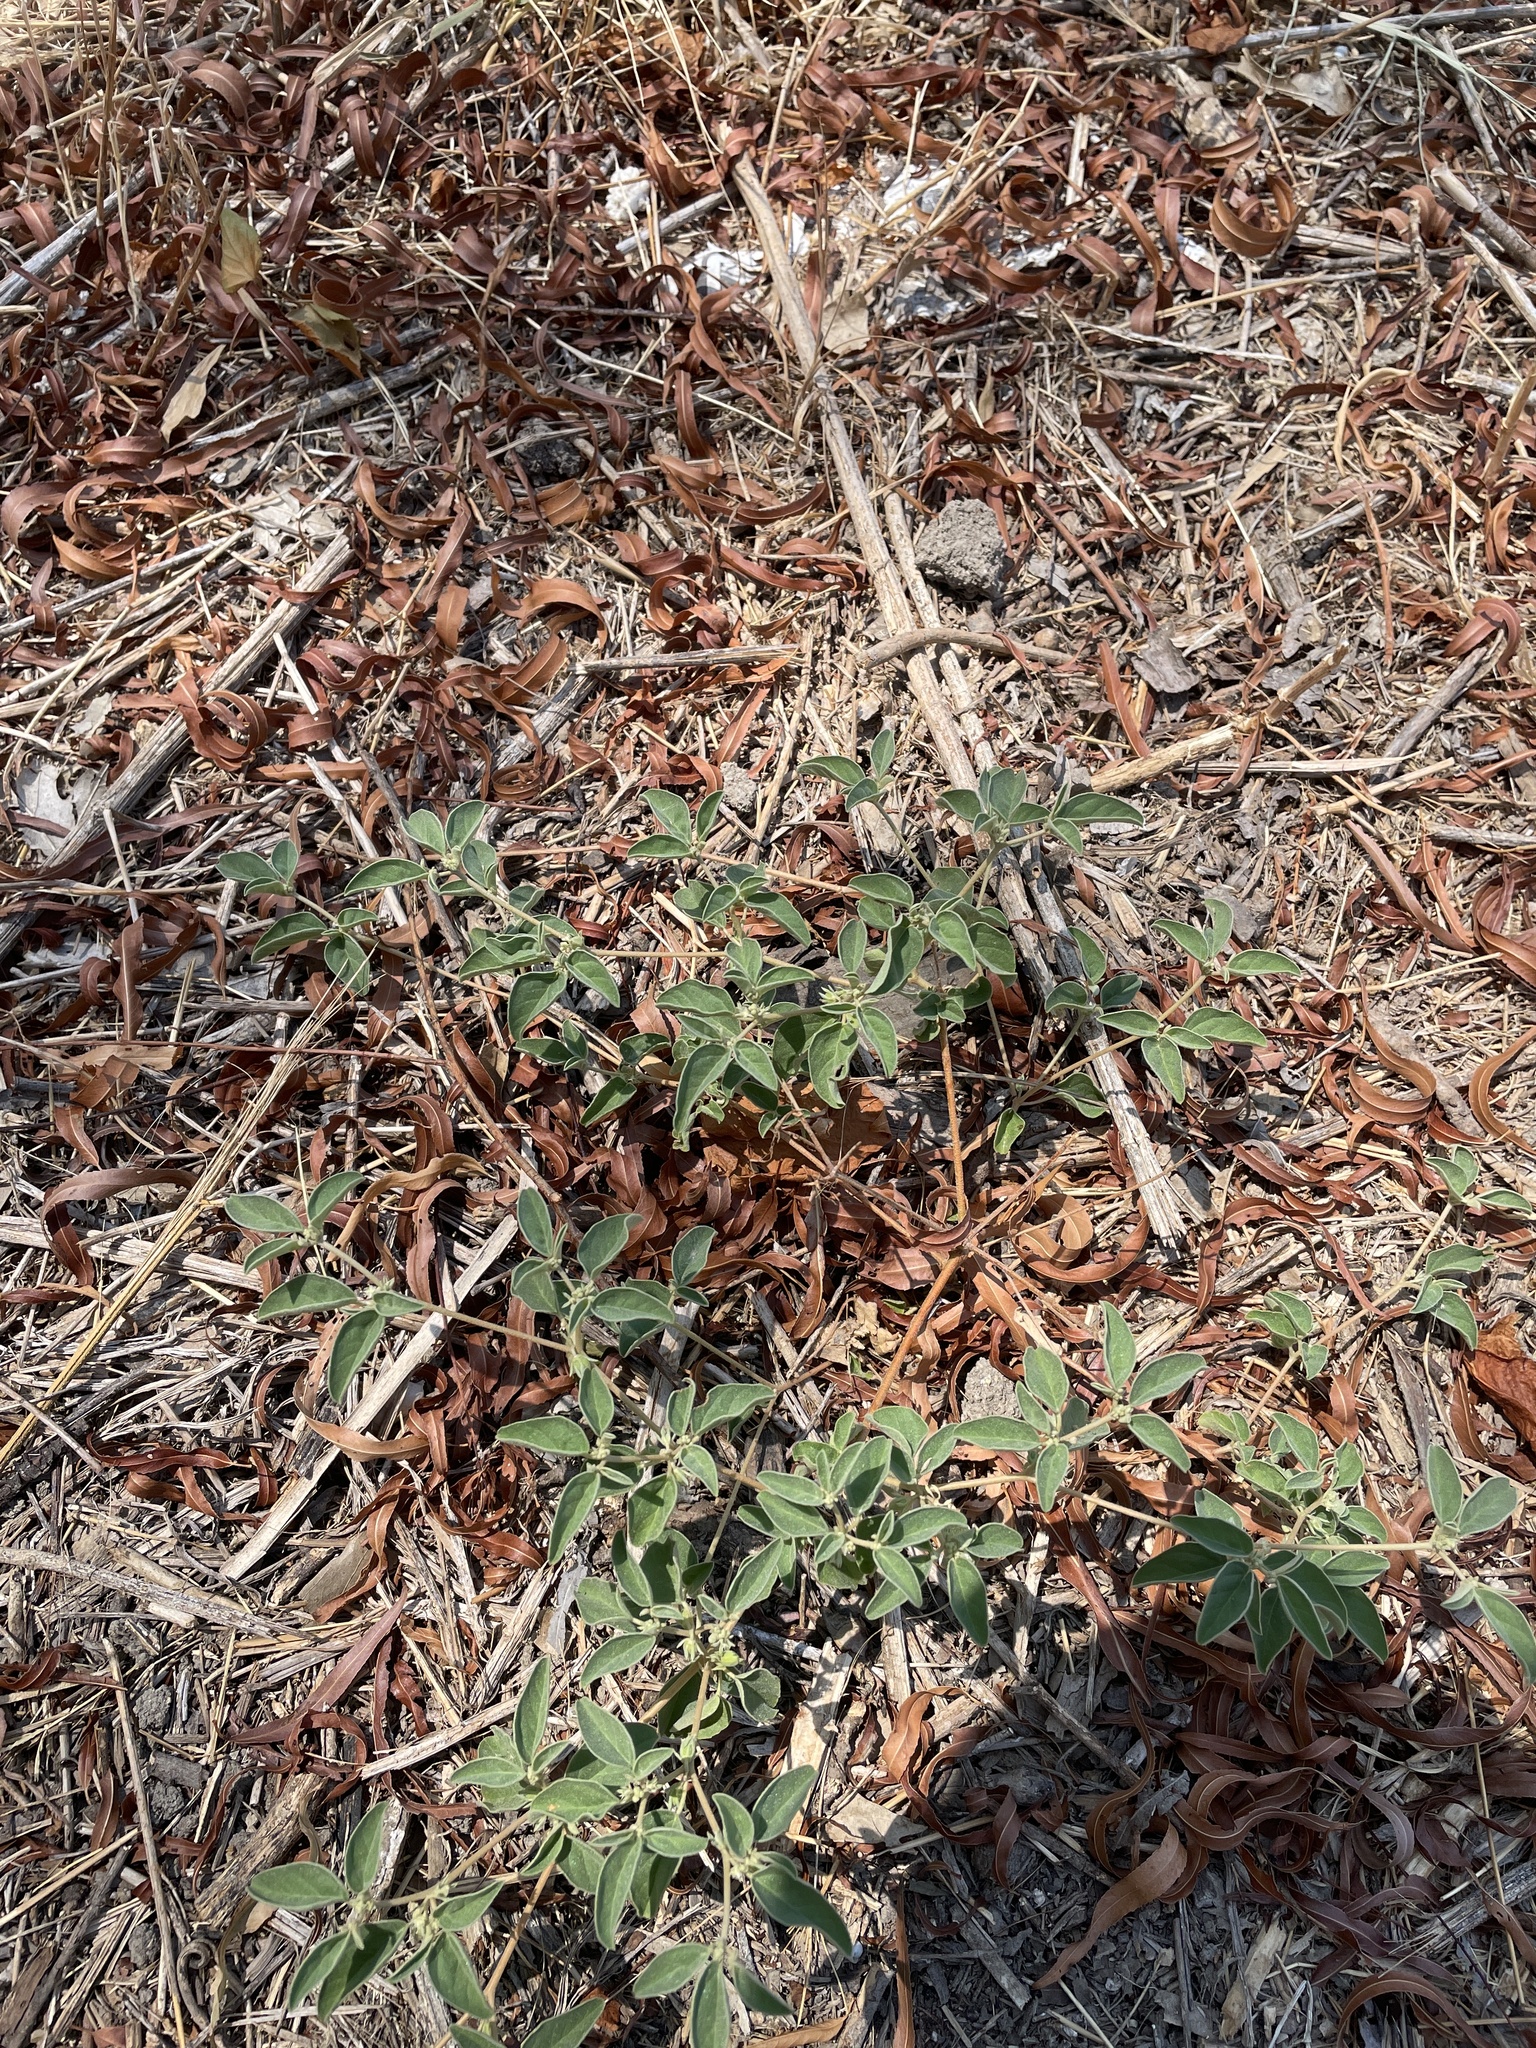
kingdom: Plantae
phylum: Tracheophyta
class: Magnoliopsida
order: Malpighiales
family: Euphorbiaceae
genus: Croton
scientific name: Croton monanthogynus
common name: One-seed croton
